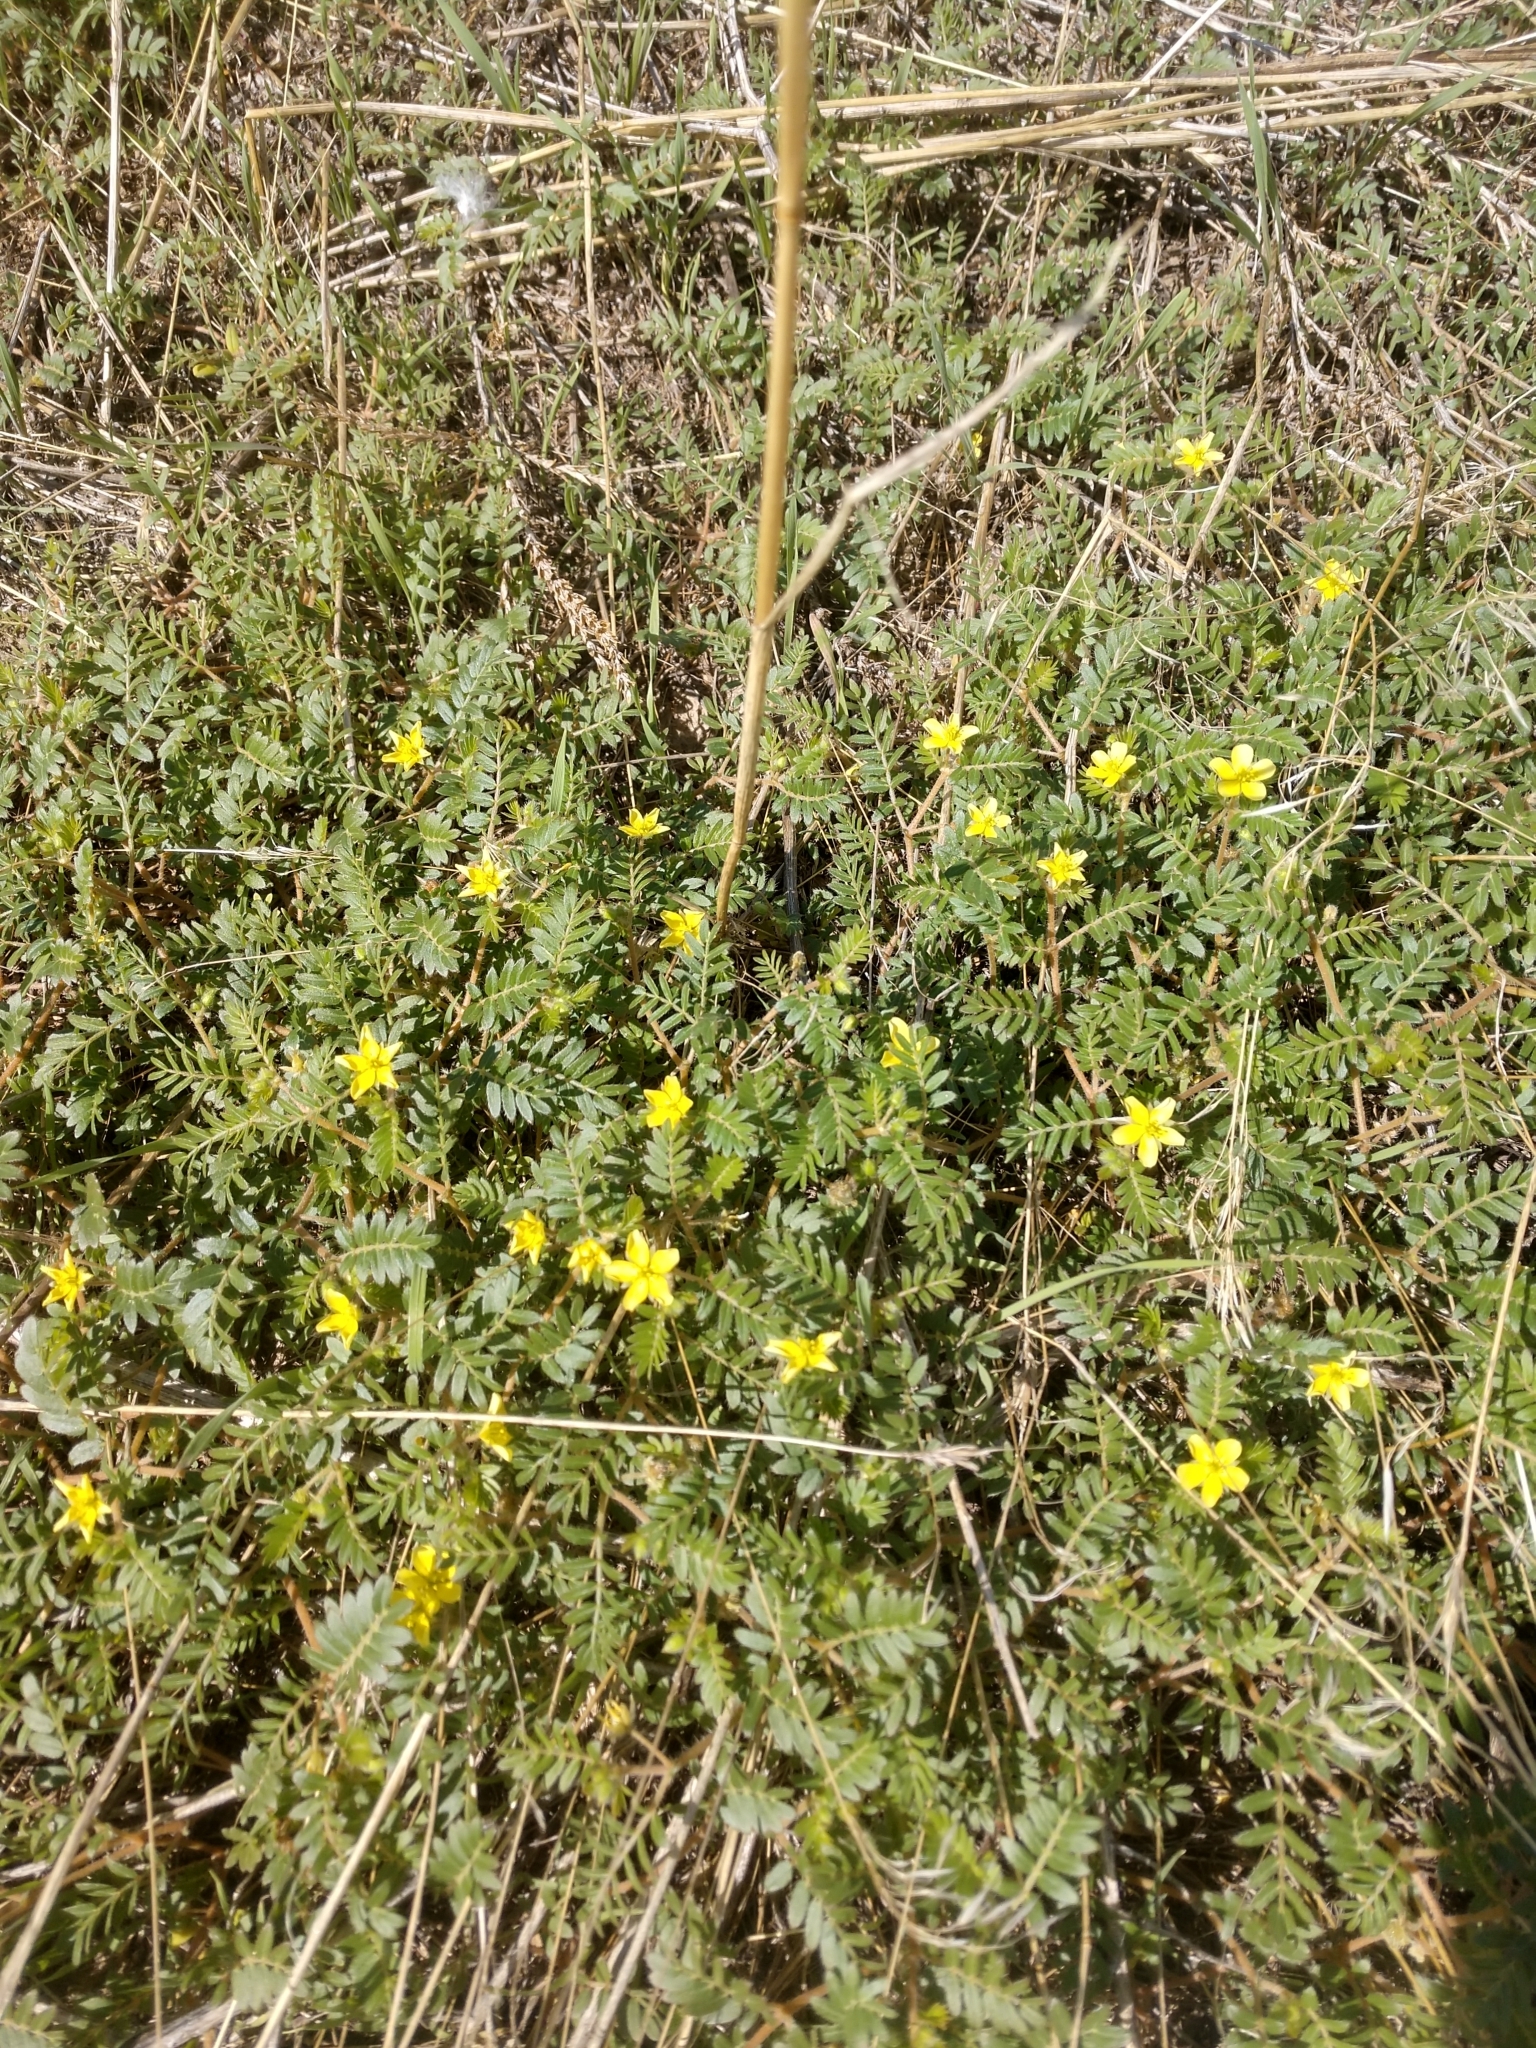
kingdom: Plantae
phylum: Tracheophyta
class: Magnoliopsida
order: Zygophyllales
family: Zygophyllaceae
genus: Tribulus
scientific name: Tribulus terrestris
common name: Puncturevine
